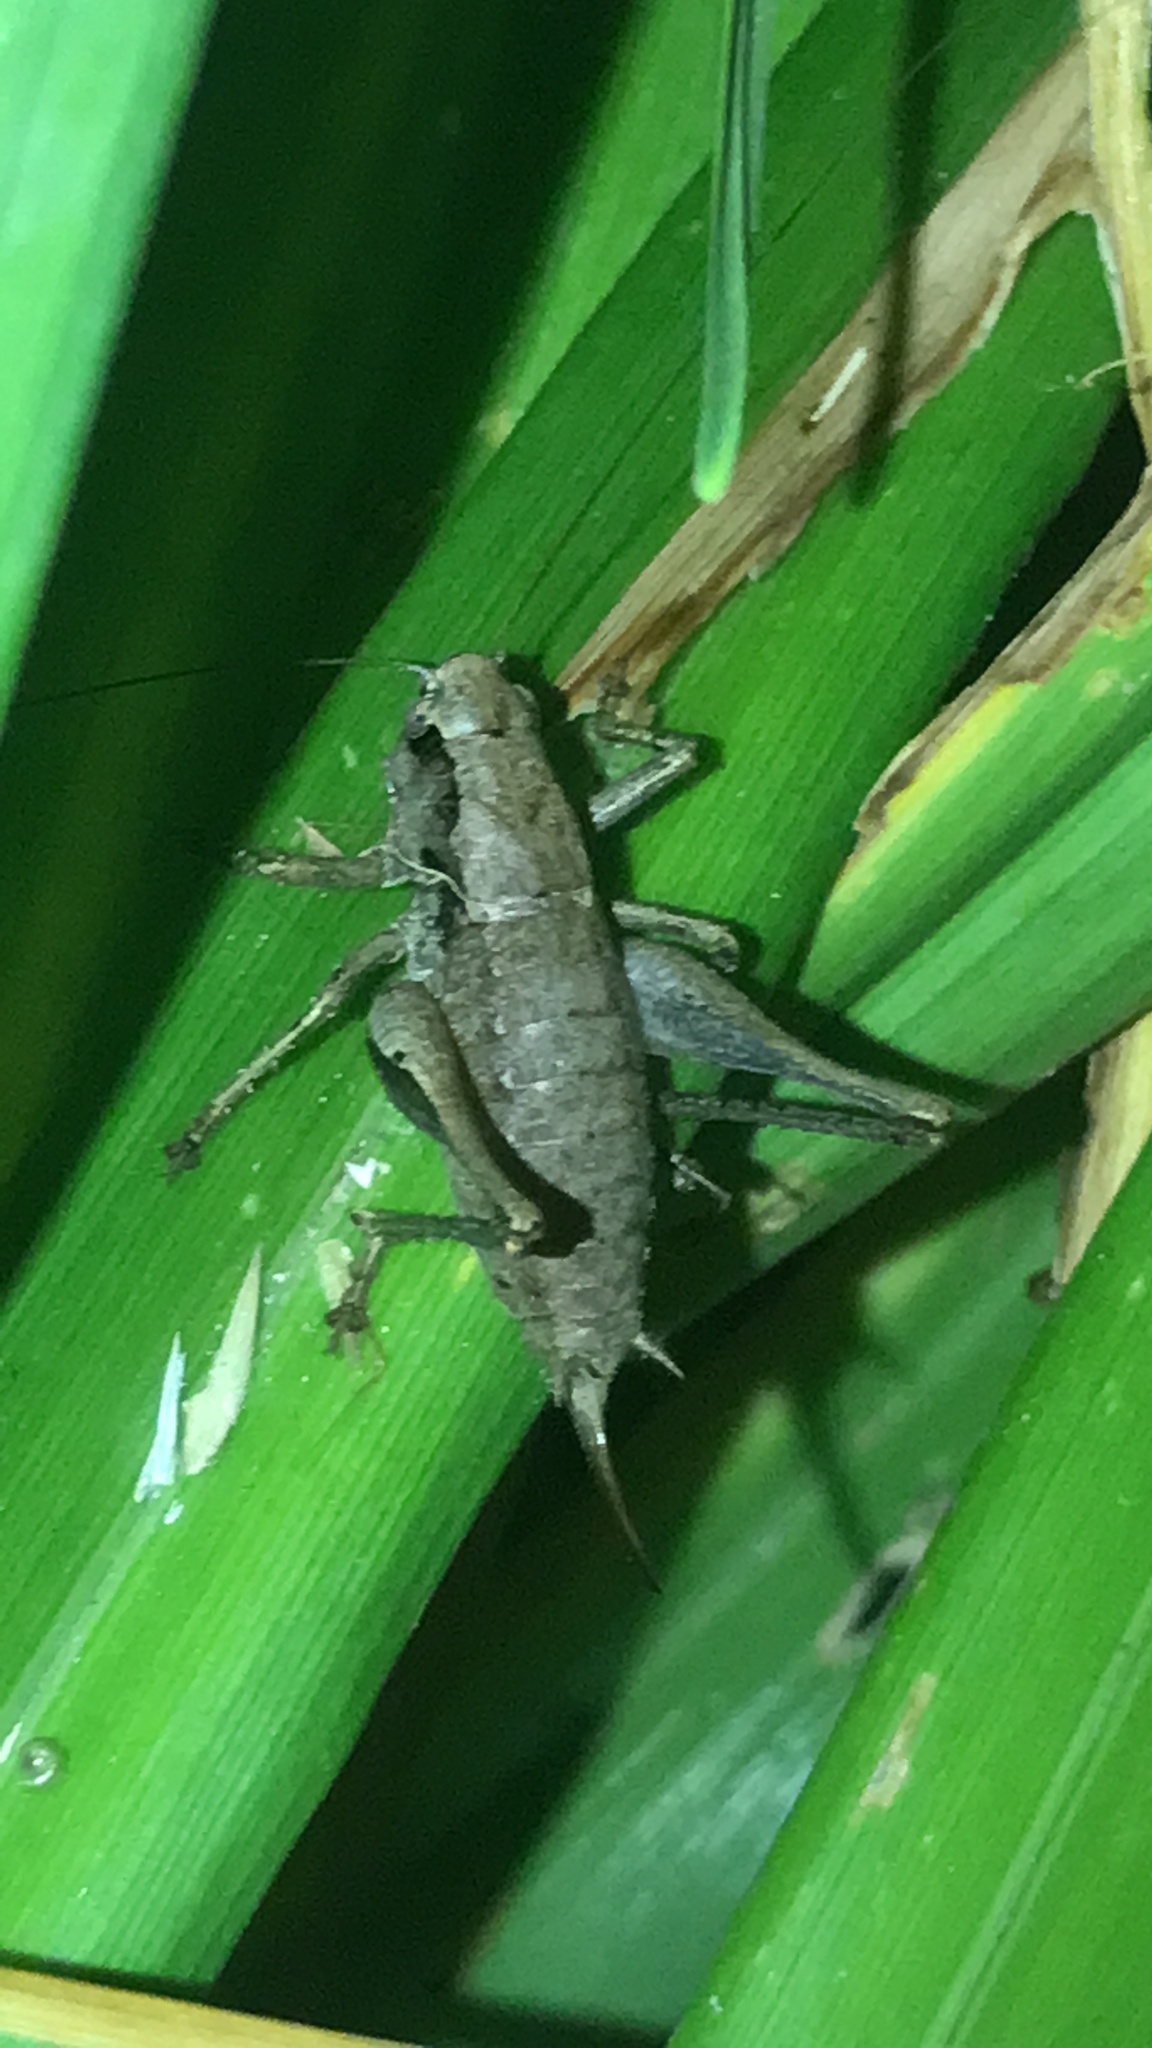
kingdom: Animalia
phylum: Arthropoda
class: Insecta
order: Orthoptera
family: Tettigoniidae
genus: Pholidoptera
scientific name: Pholidoptera griseoaptera
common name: Dark bush-cricket
